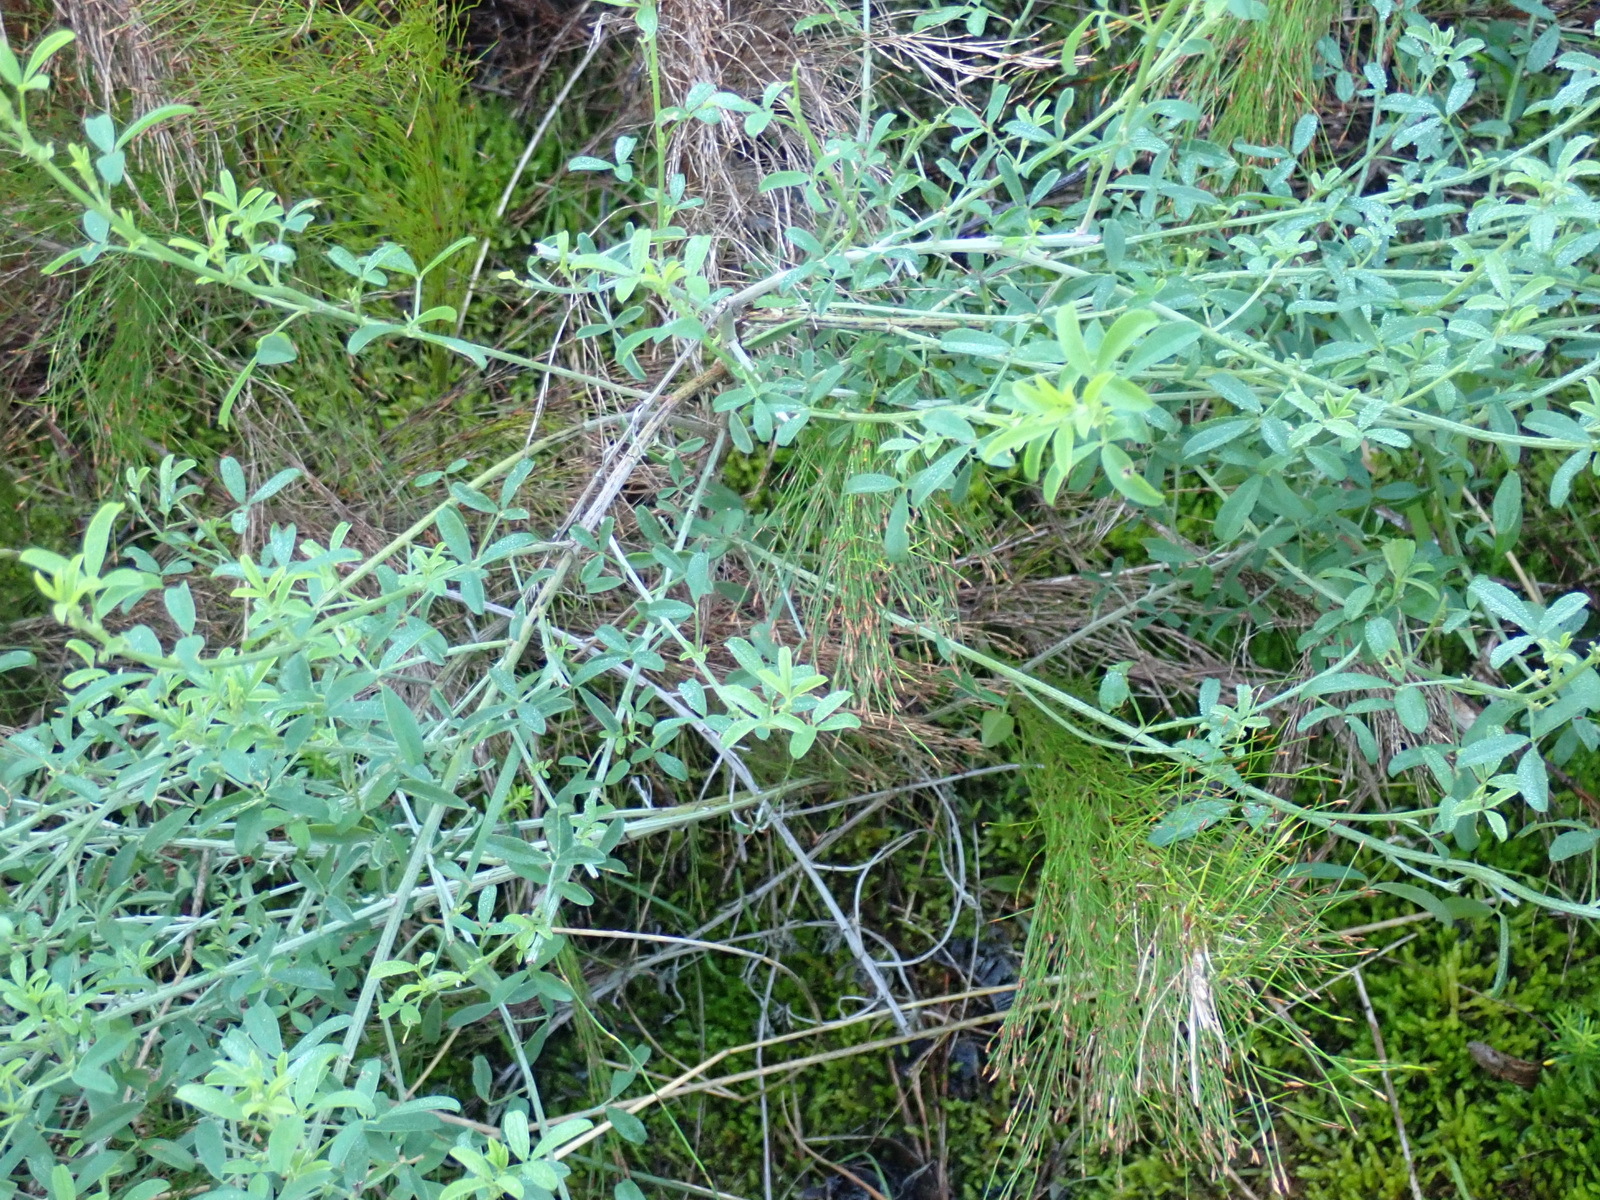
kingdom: Plantae
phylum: Tracheophyta
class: Magnoliopsida
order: Fabales
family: Fabaceae
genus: Indigofera
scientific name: Indigofera candicans
